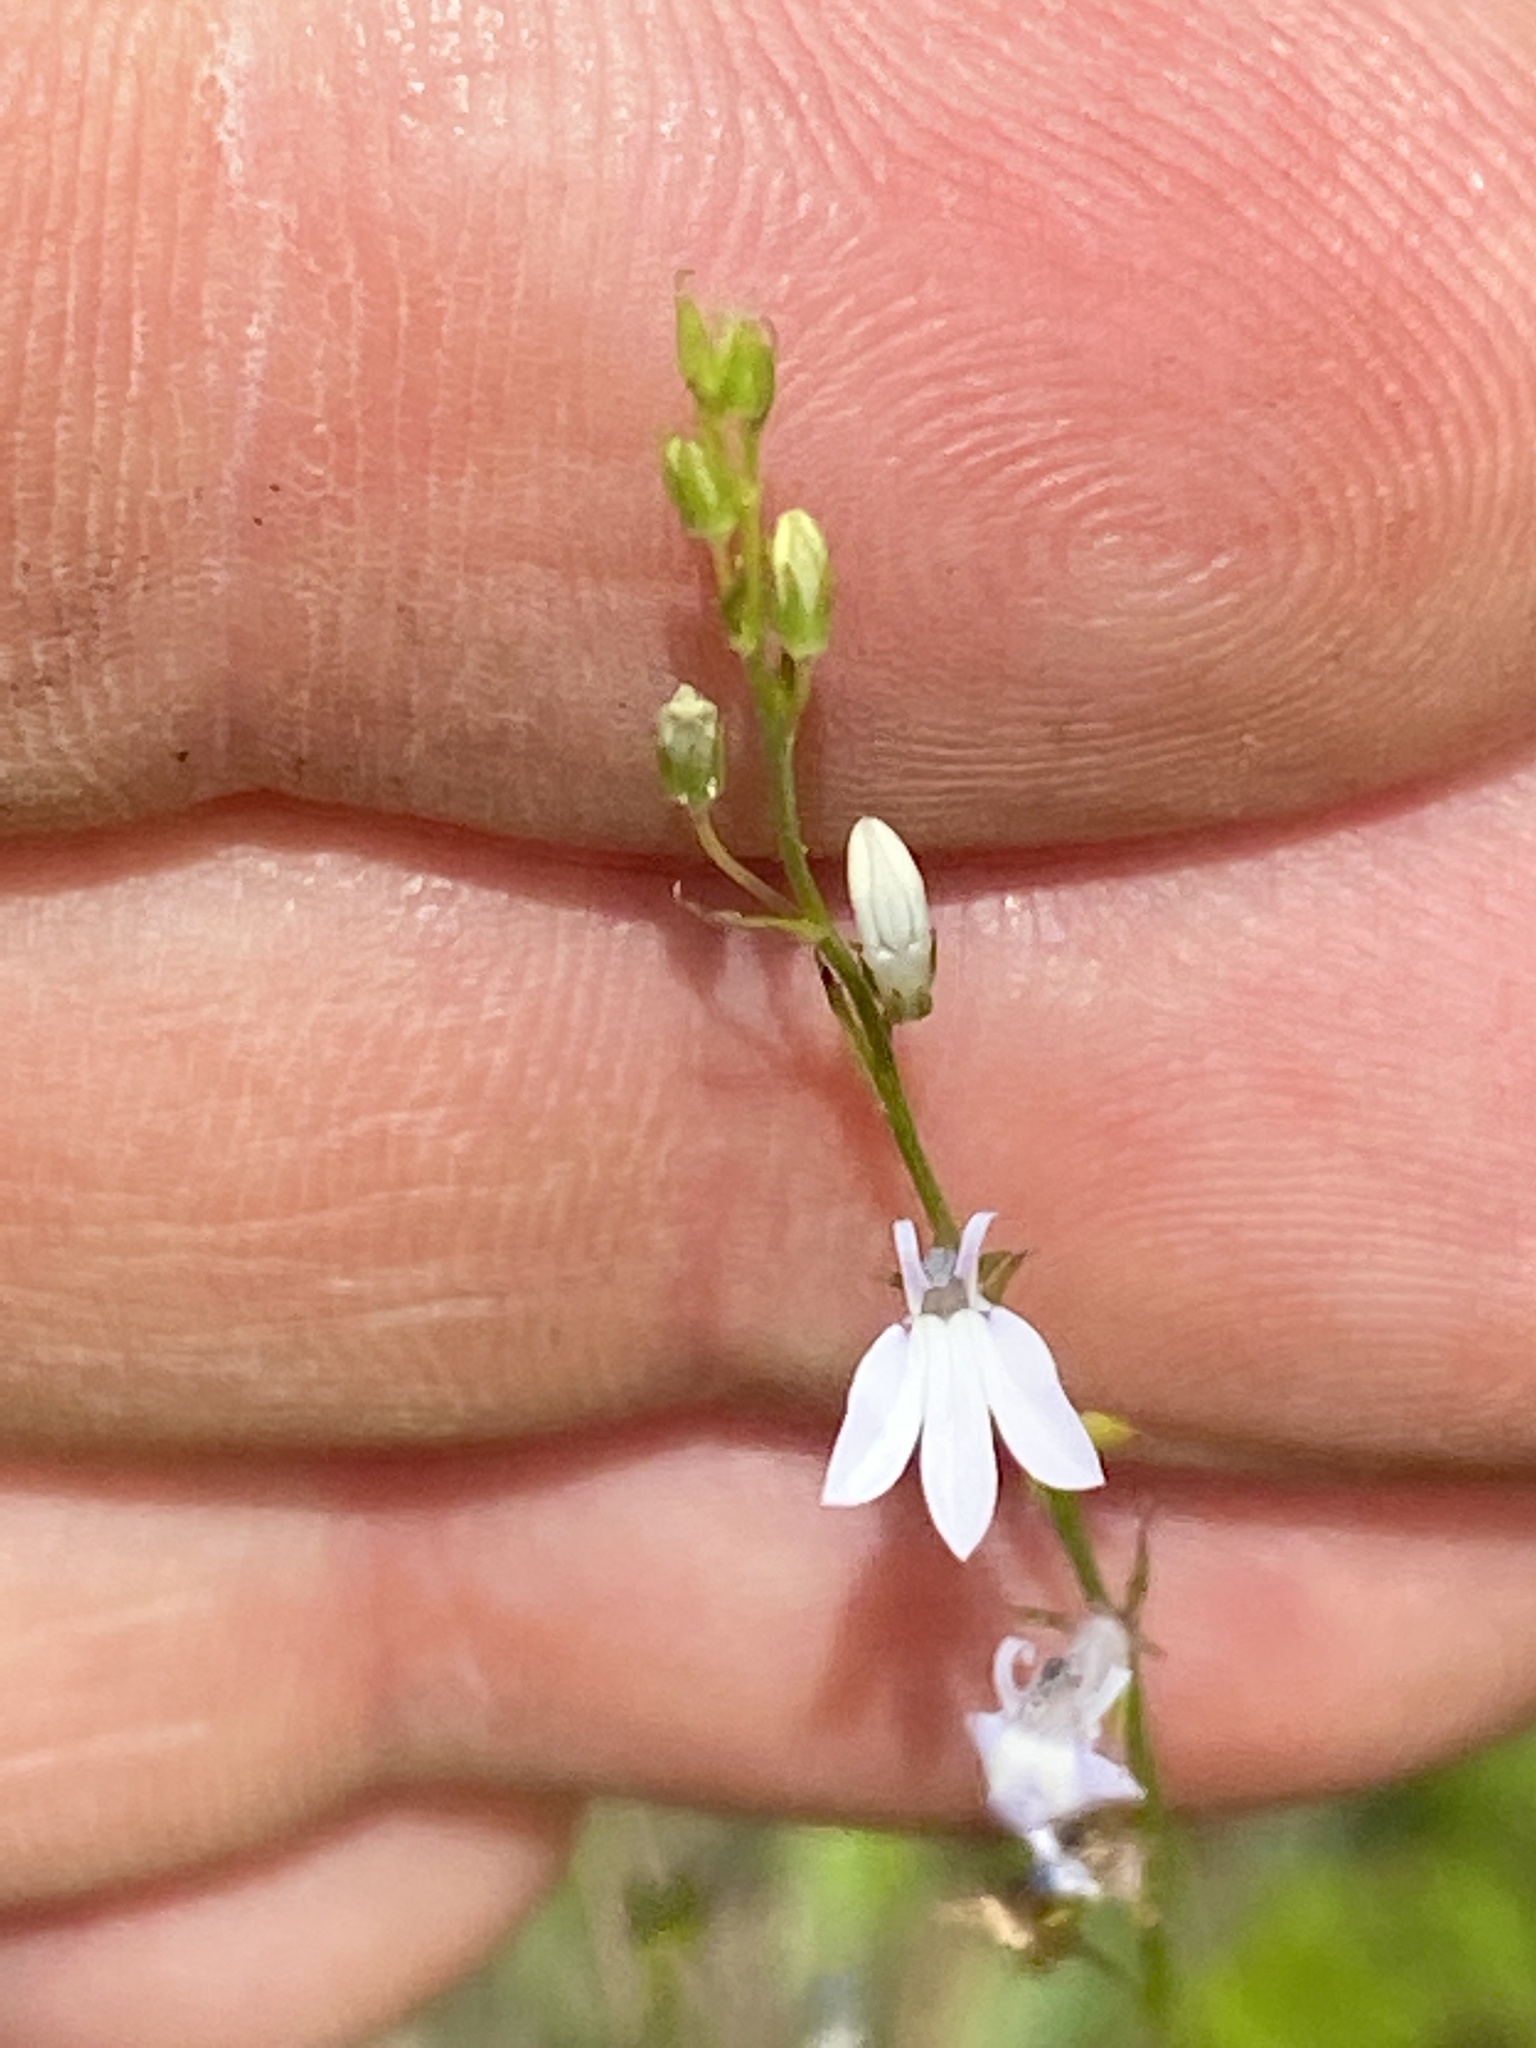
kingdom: Plantae
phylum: Tracheophyta
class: Magnoliopsida
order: Asterales
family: Campanulaceae
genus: Lobelia
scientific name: Lobelia nuttallii
